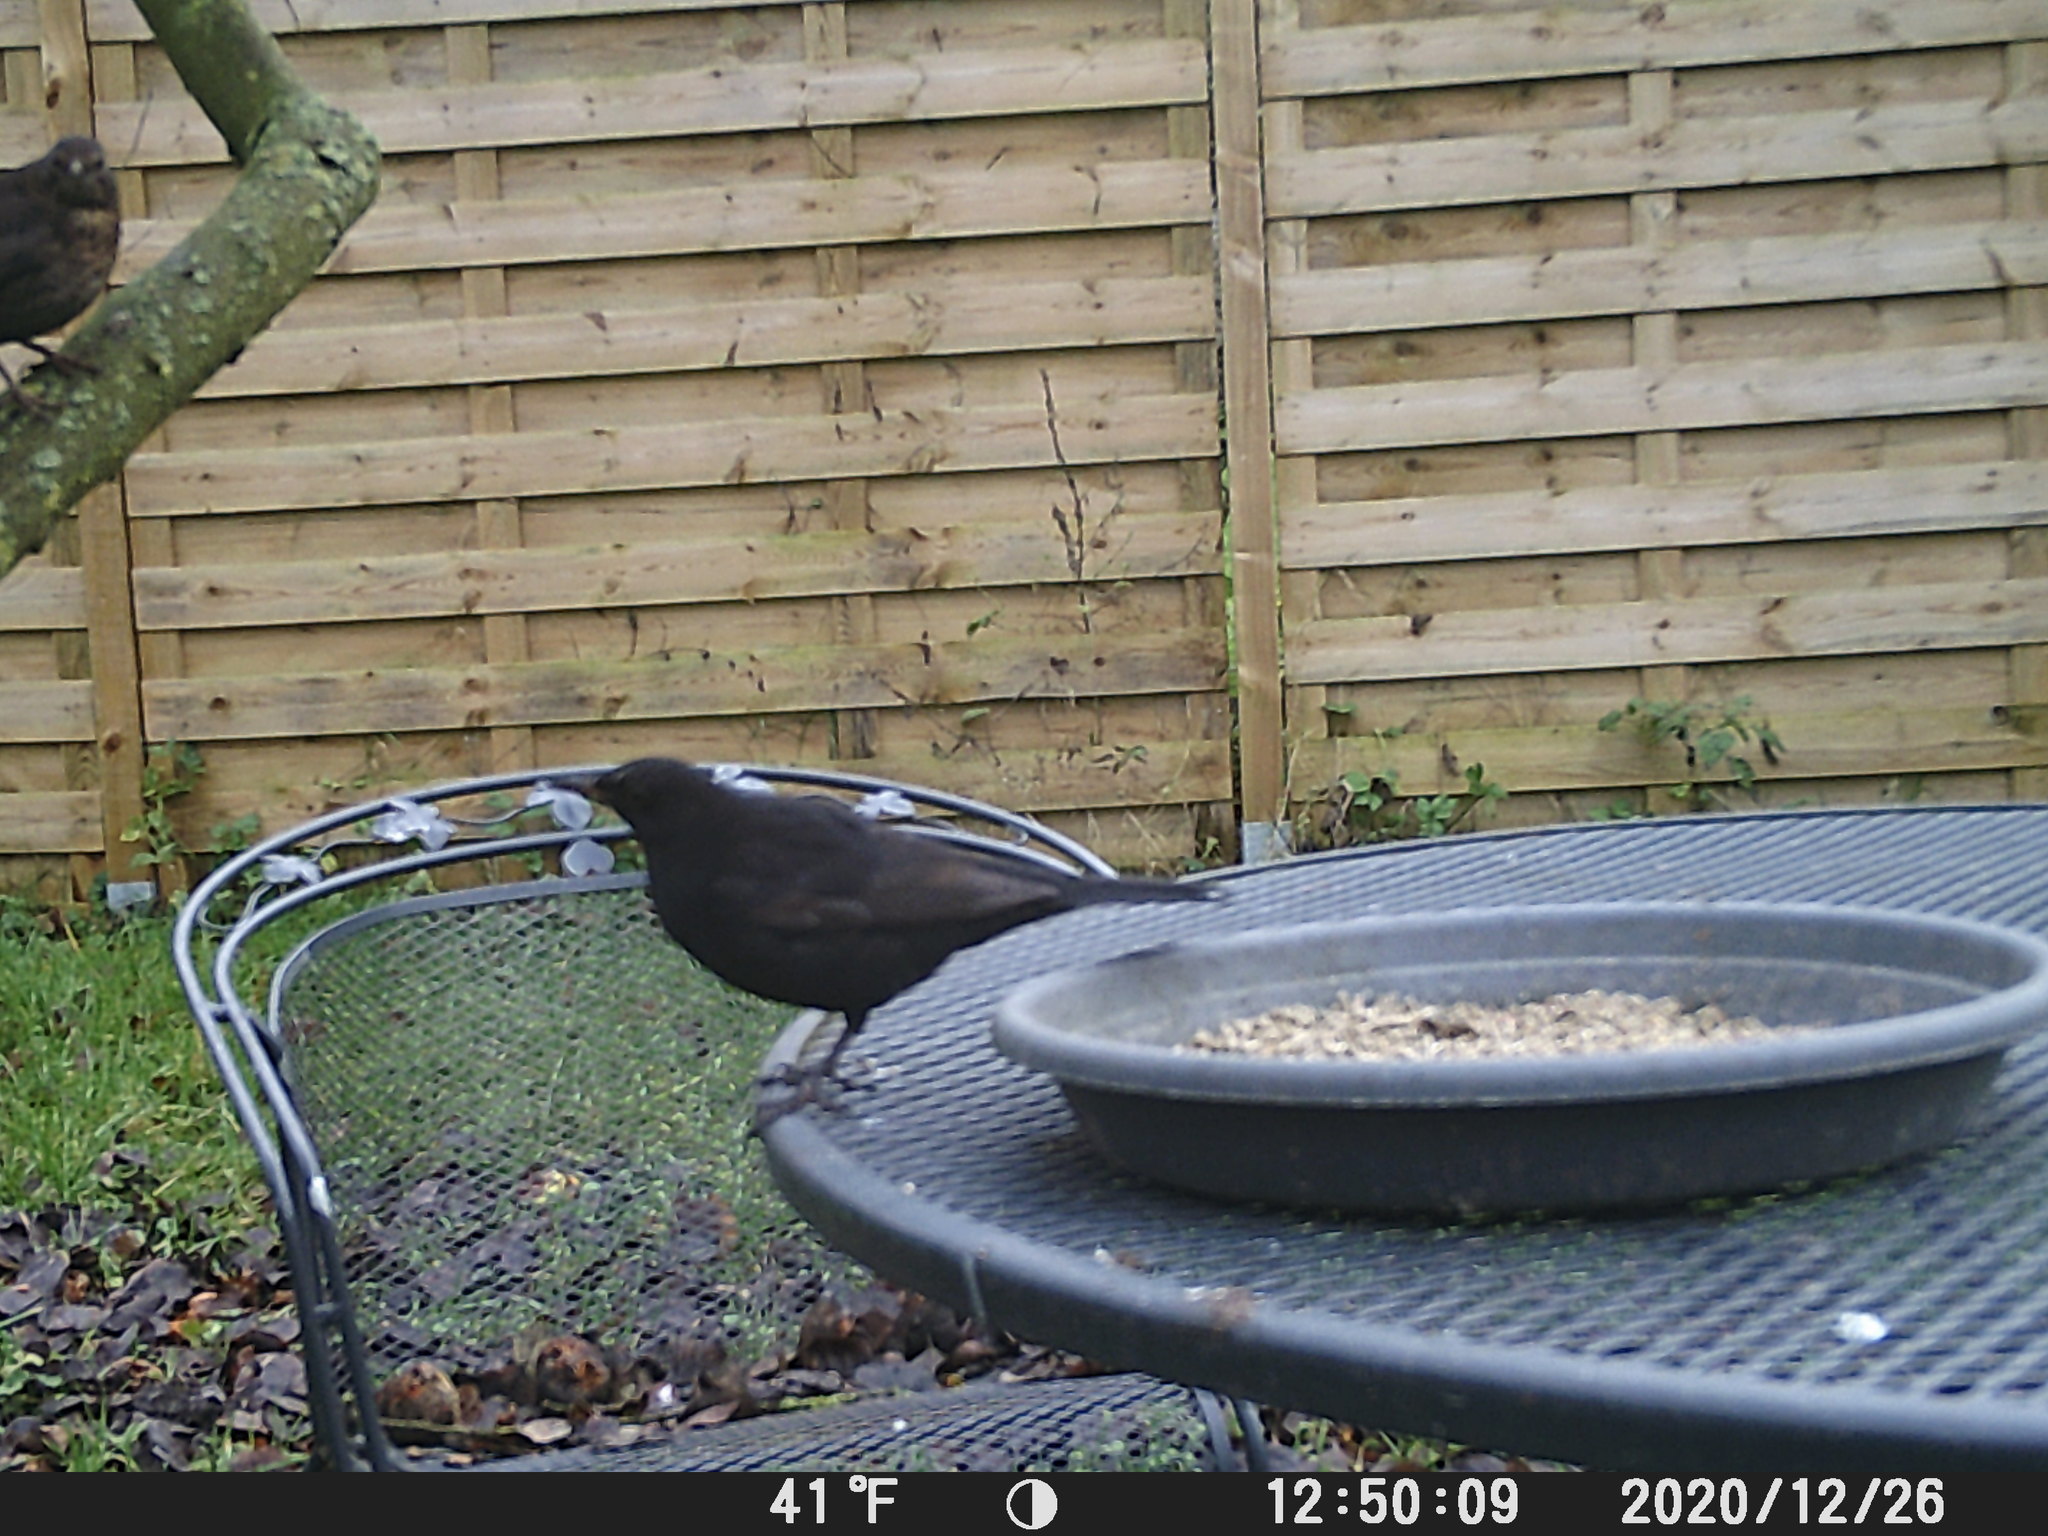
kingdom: Animalia
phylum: Chordata
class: Aves
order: Passeriformes
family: Turdidae
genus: Turdus
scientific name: Turdus merula
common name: Common blackbird
